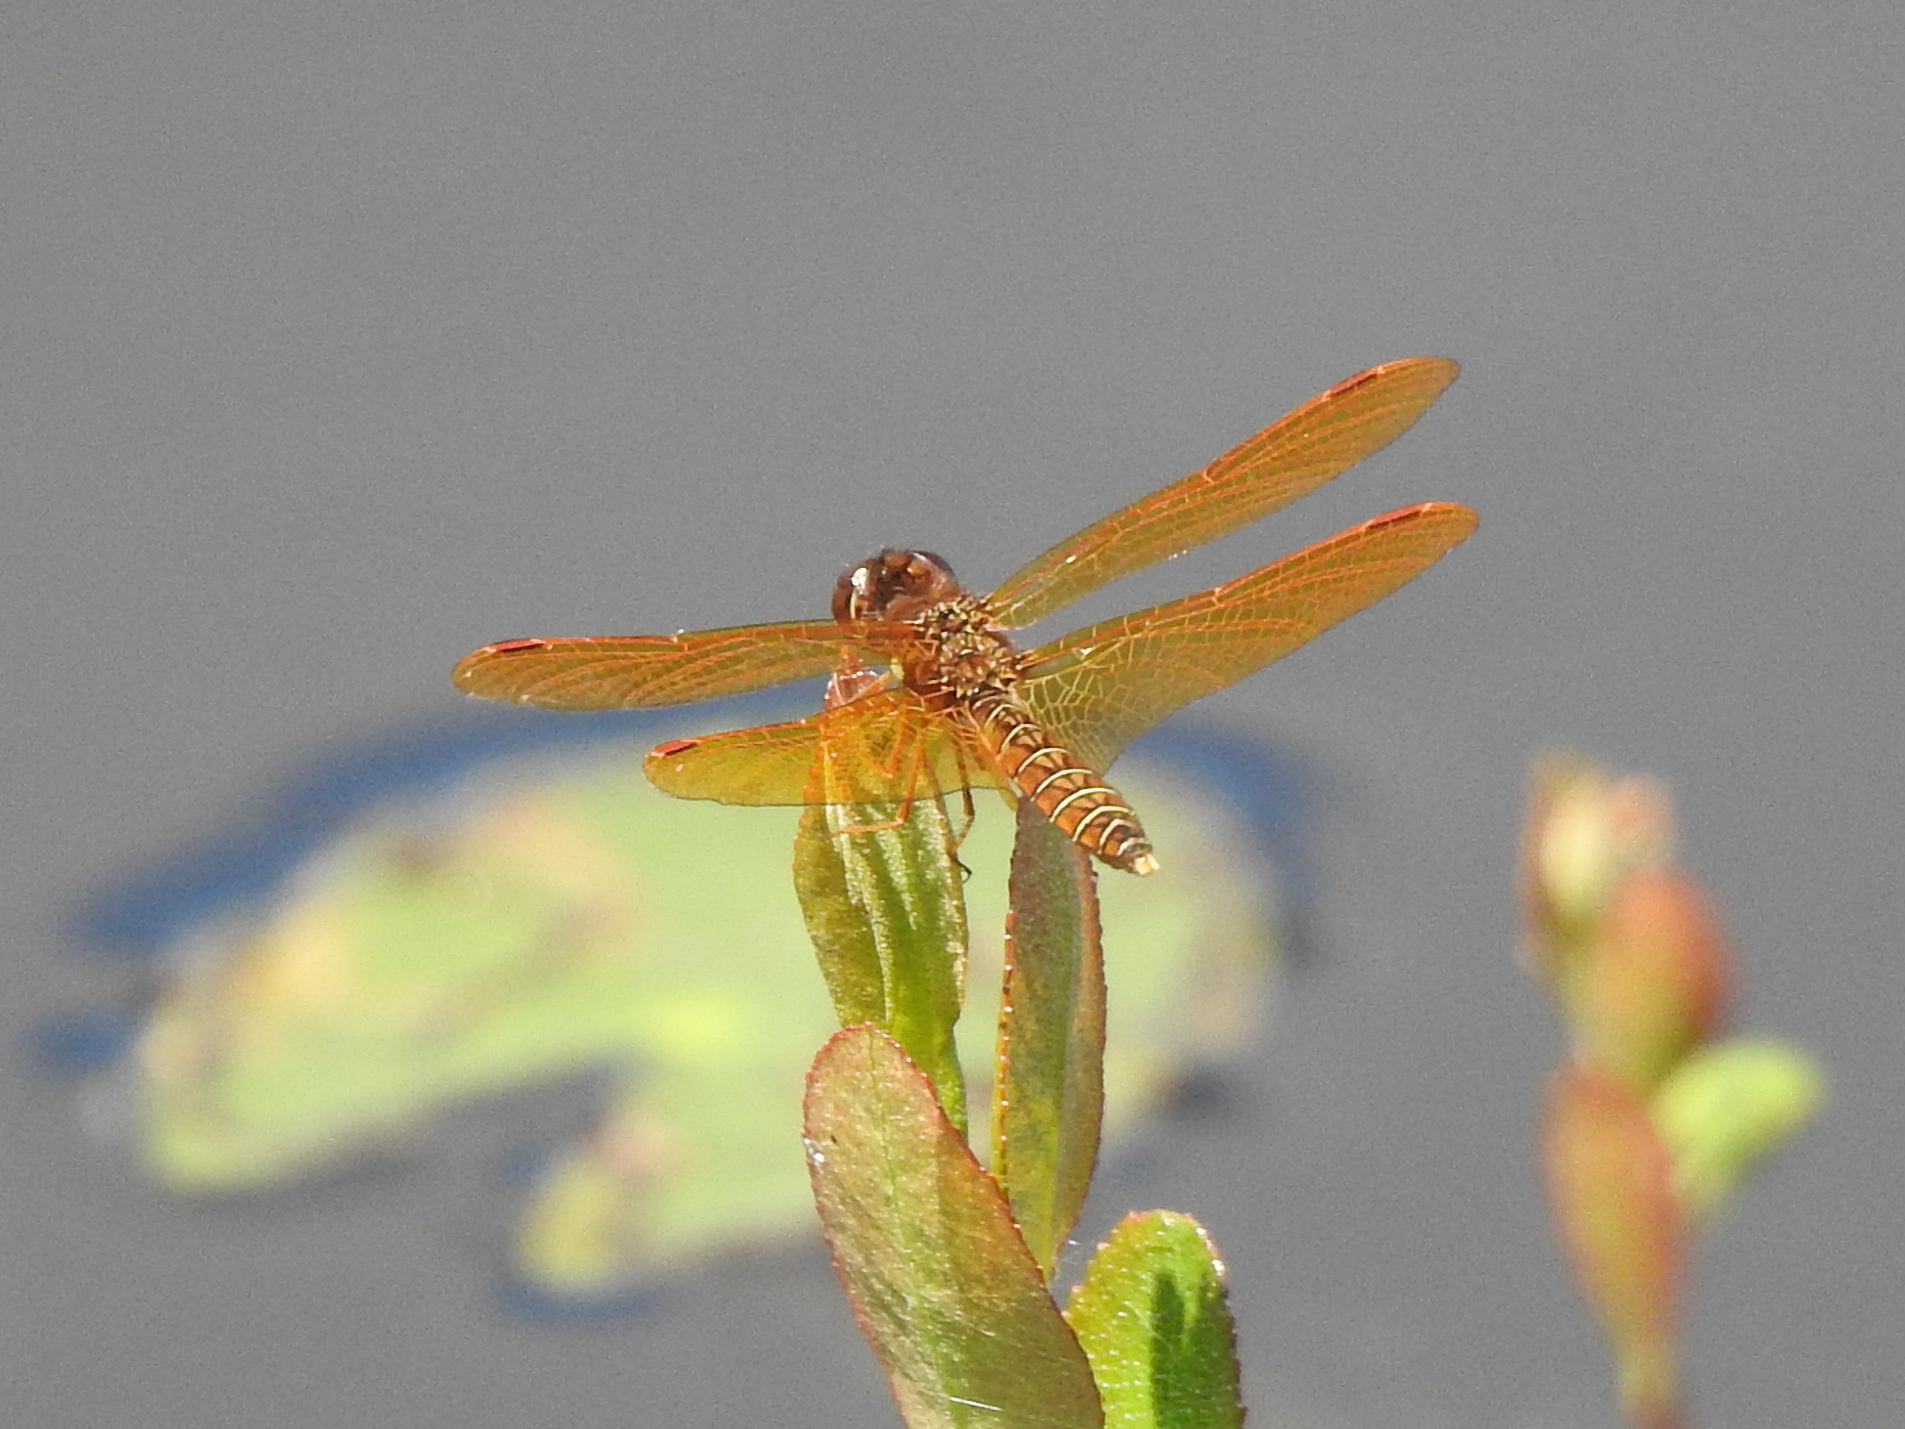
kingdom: Animalia
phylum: Arthropoda
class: Insecta
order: Odonata
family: Libellulidae
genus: Perithemis
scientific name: Perithemis tenera
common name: Eastern amberwing
